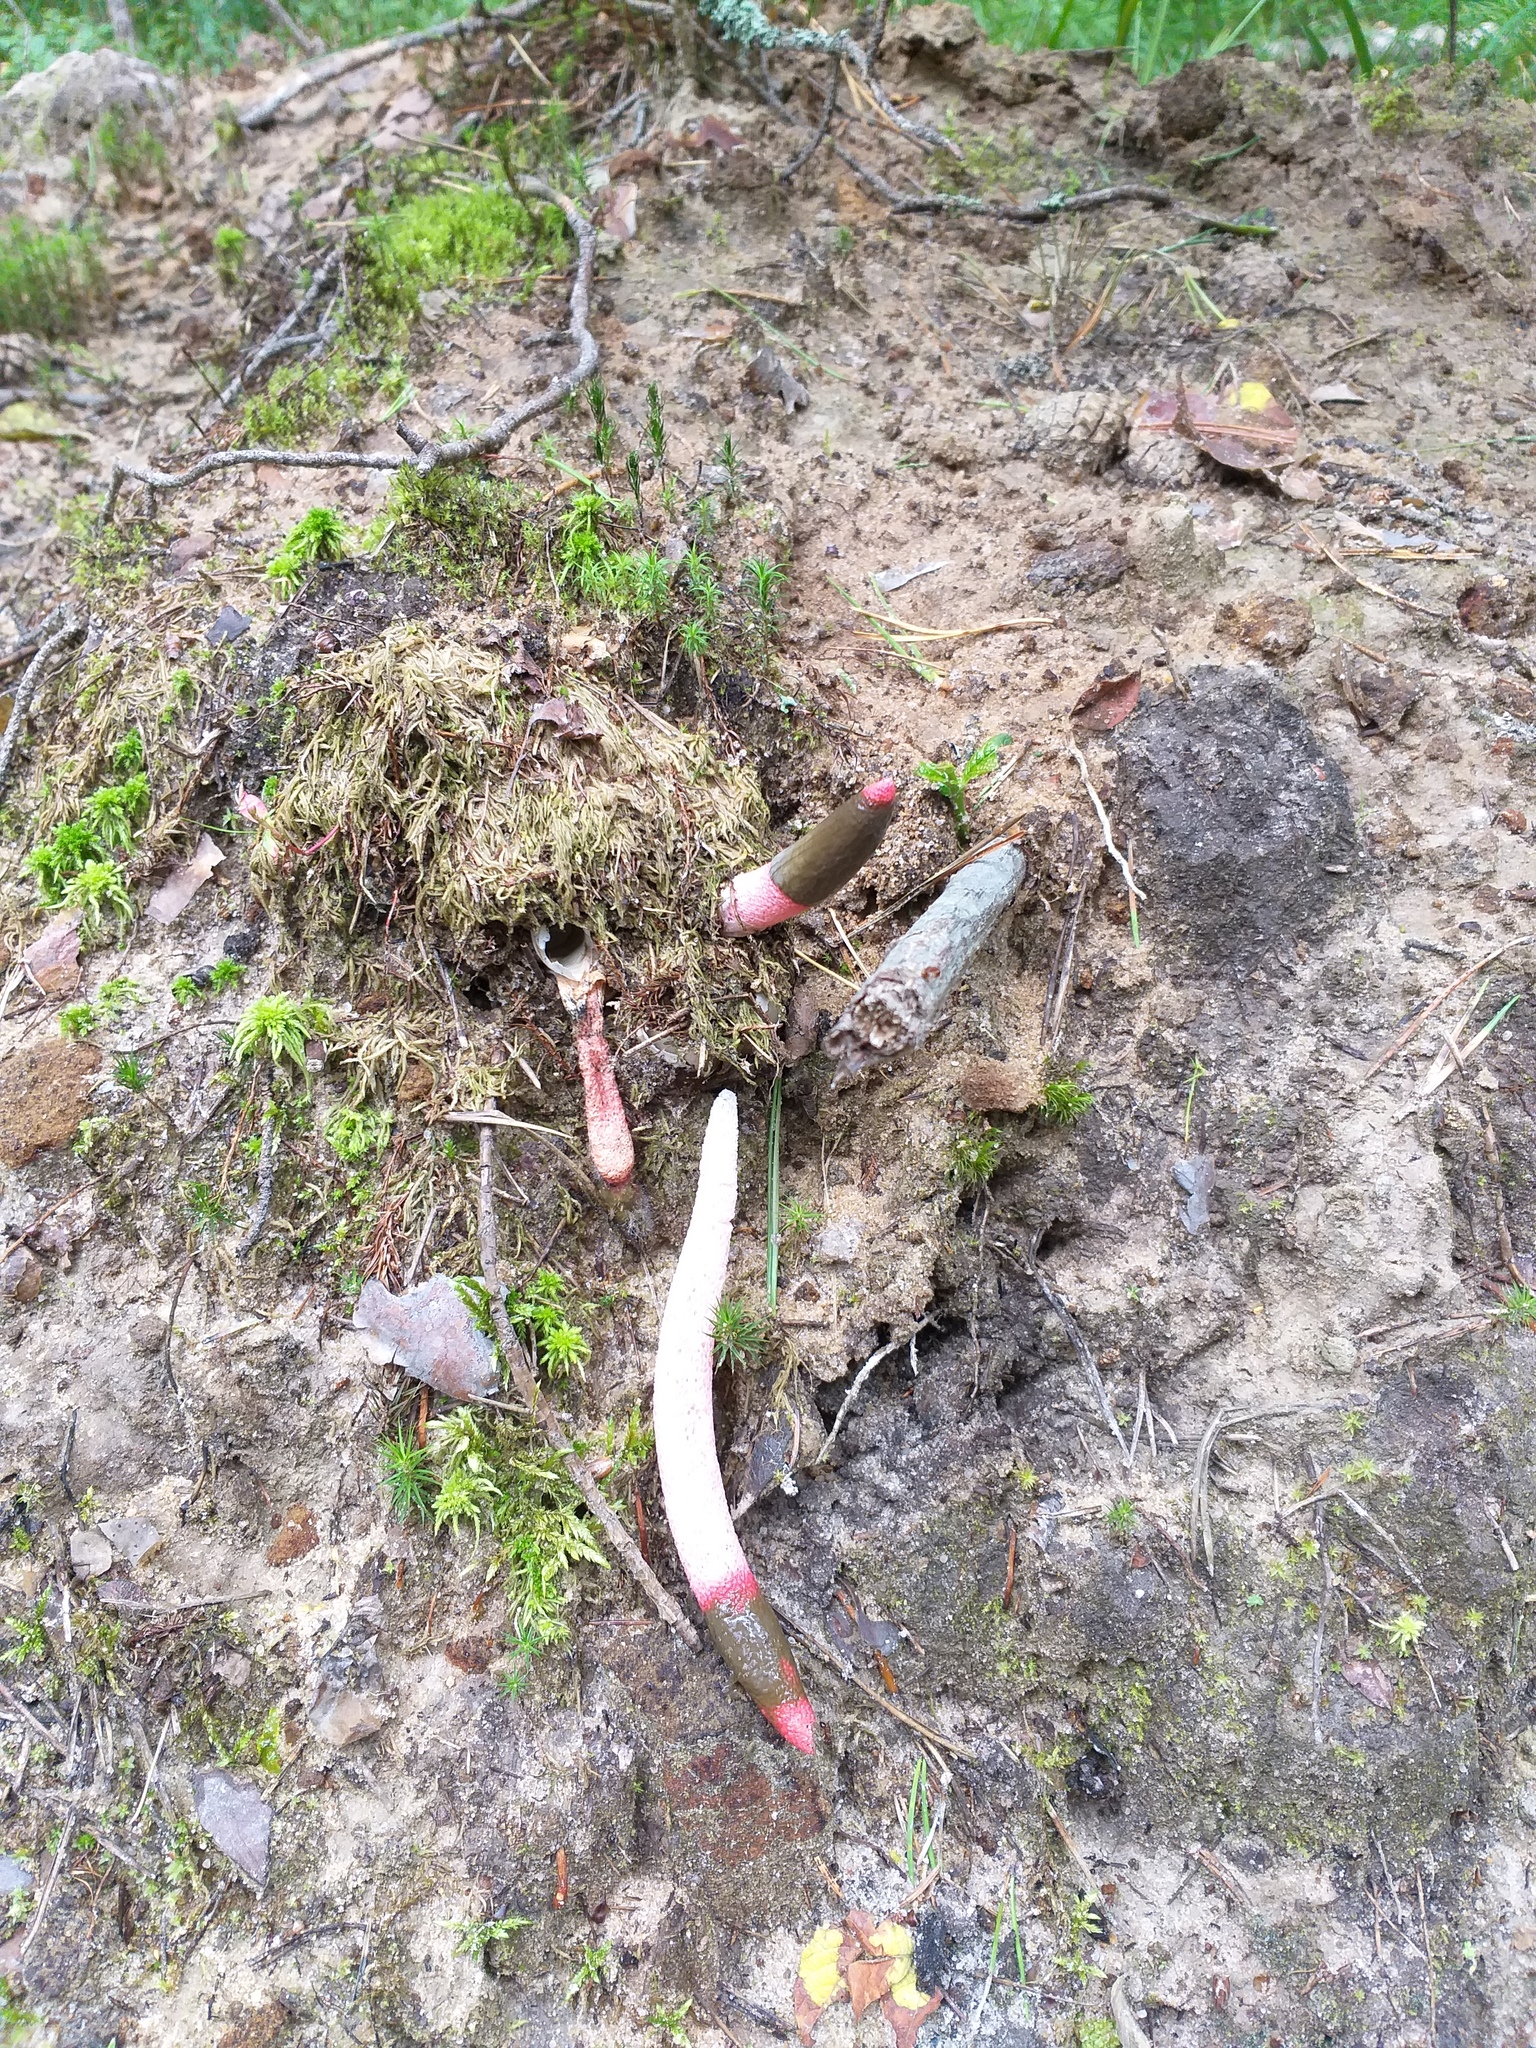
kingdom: Fungi
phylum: Basidiomycota
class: Agaricomycetes
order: Phallales
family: Phallaceae
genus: Mutinus
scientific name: Mutinus ravenelii
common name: Red stinkhorn
